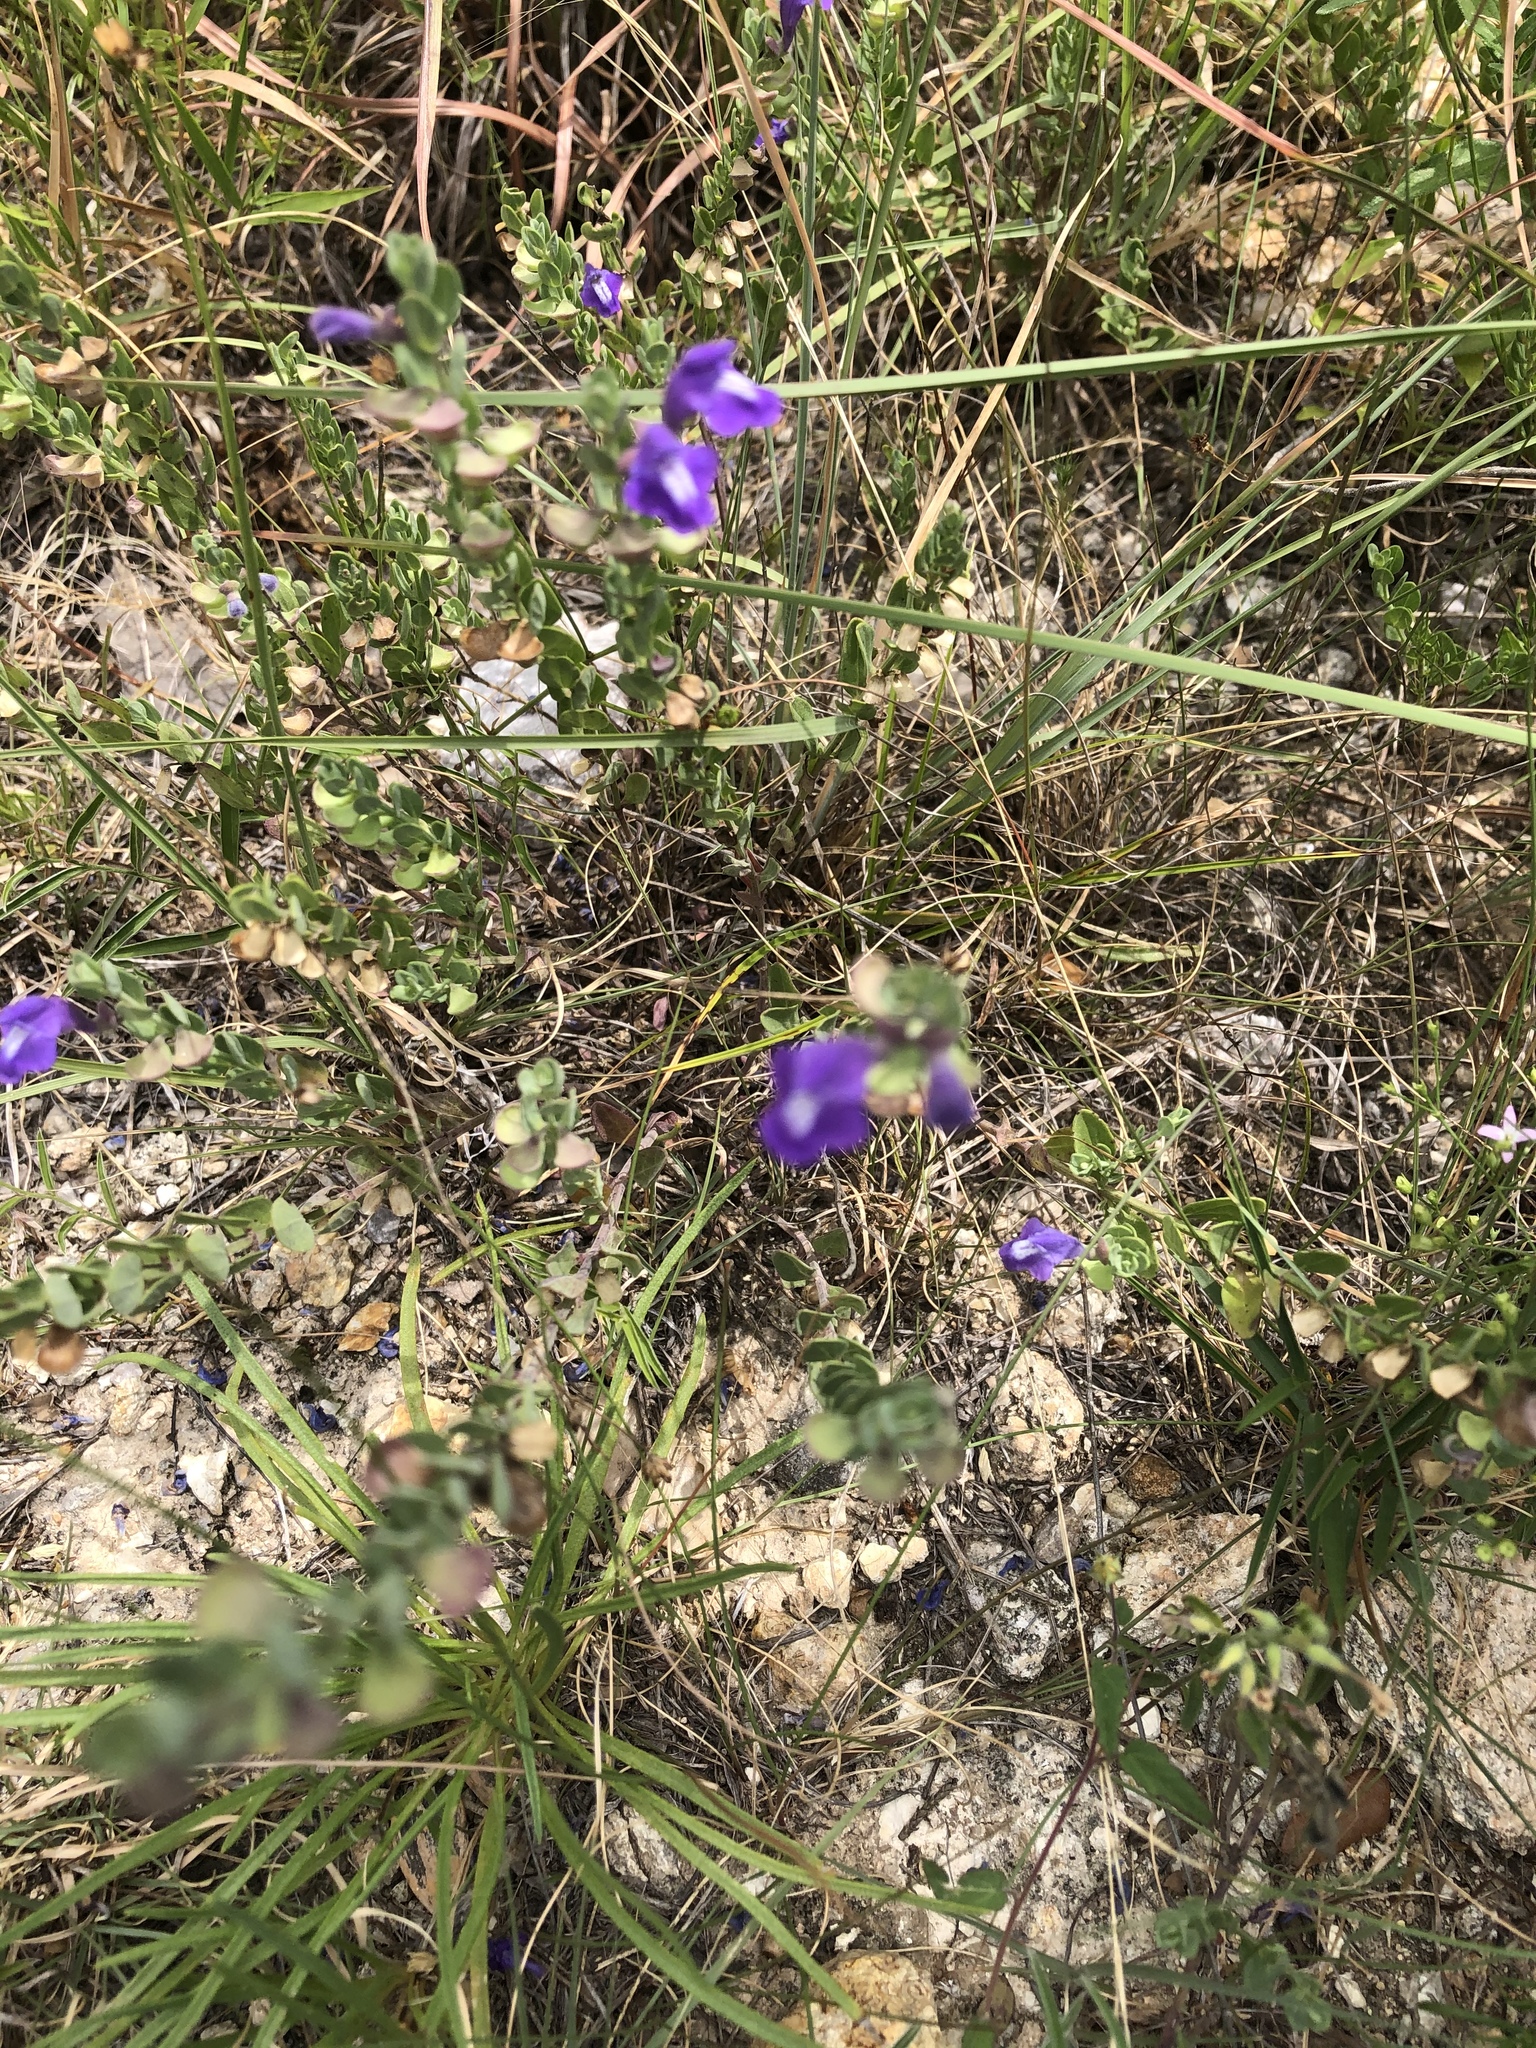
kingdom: Plantae
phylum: Tracheophyta
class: Magnoliopsida
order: Lamiales
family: Lamiaceae
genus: Scutellaria
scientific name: Scutellaria wrightii
